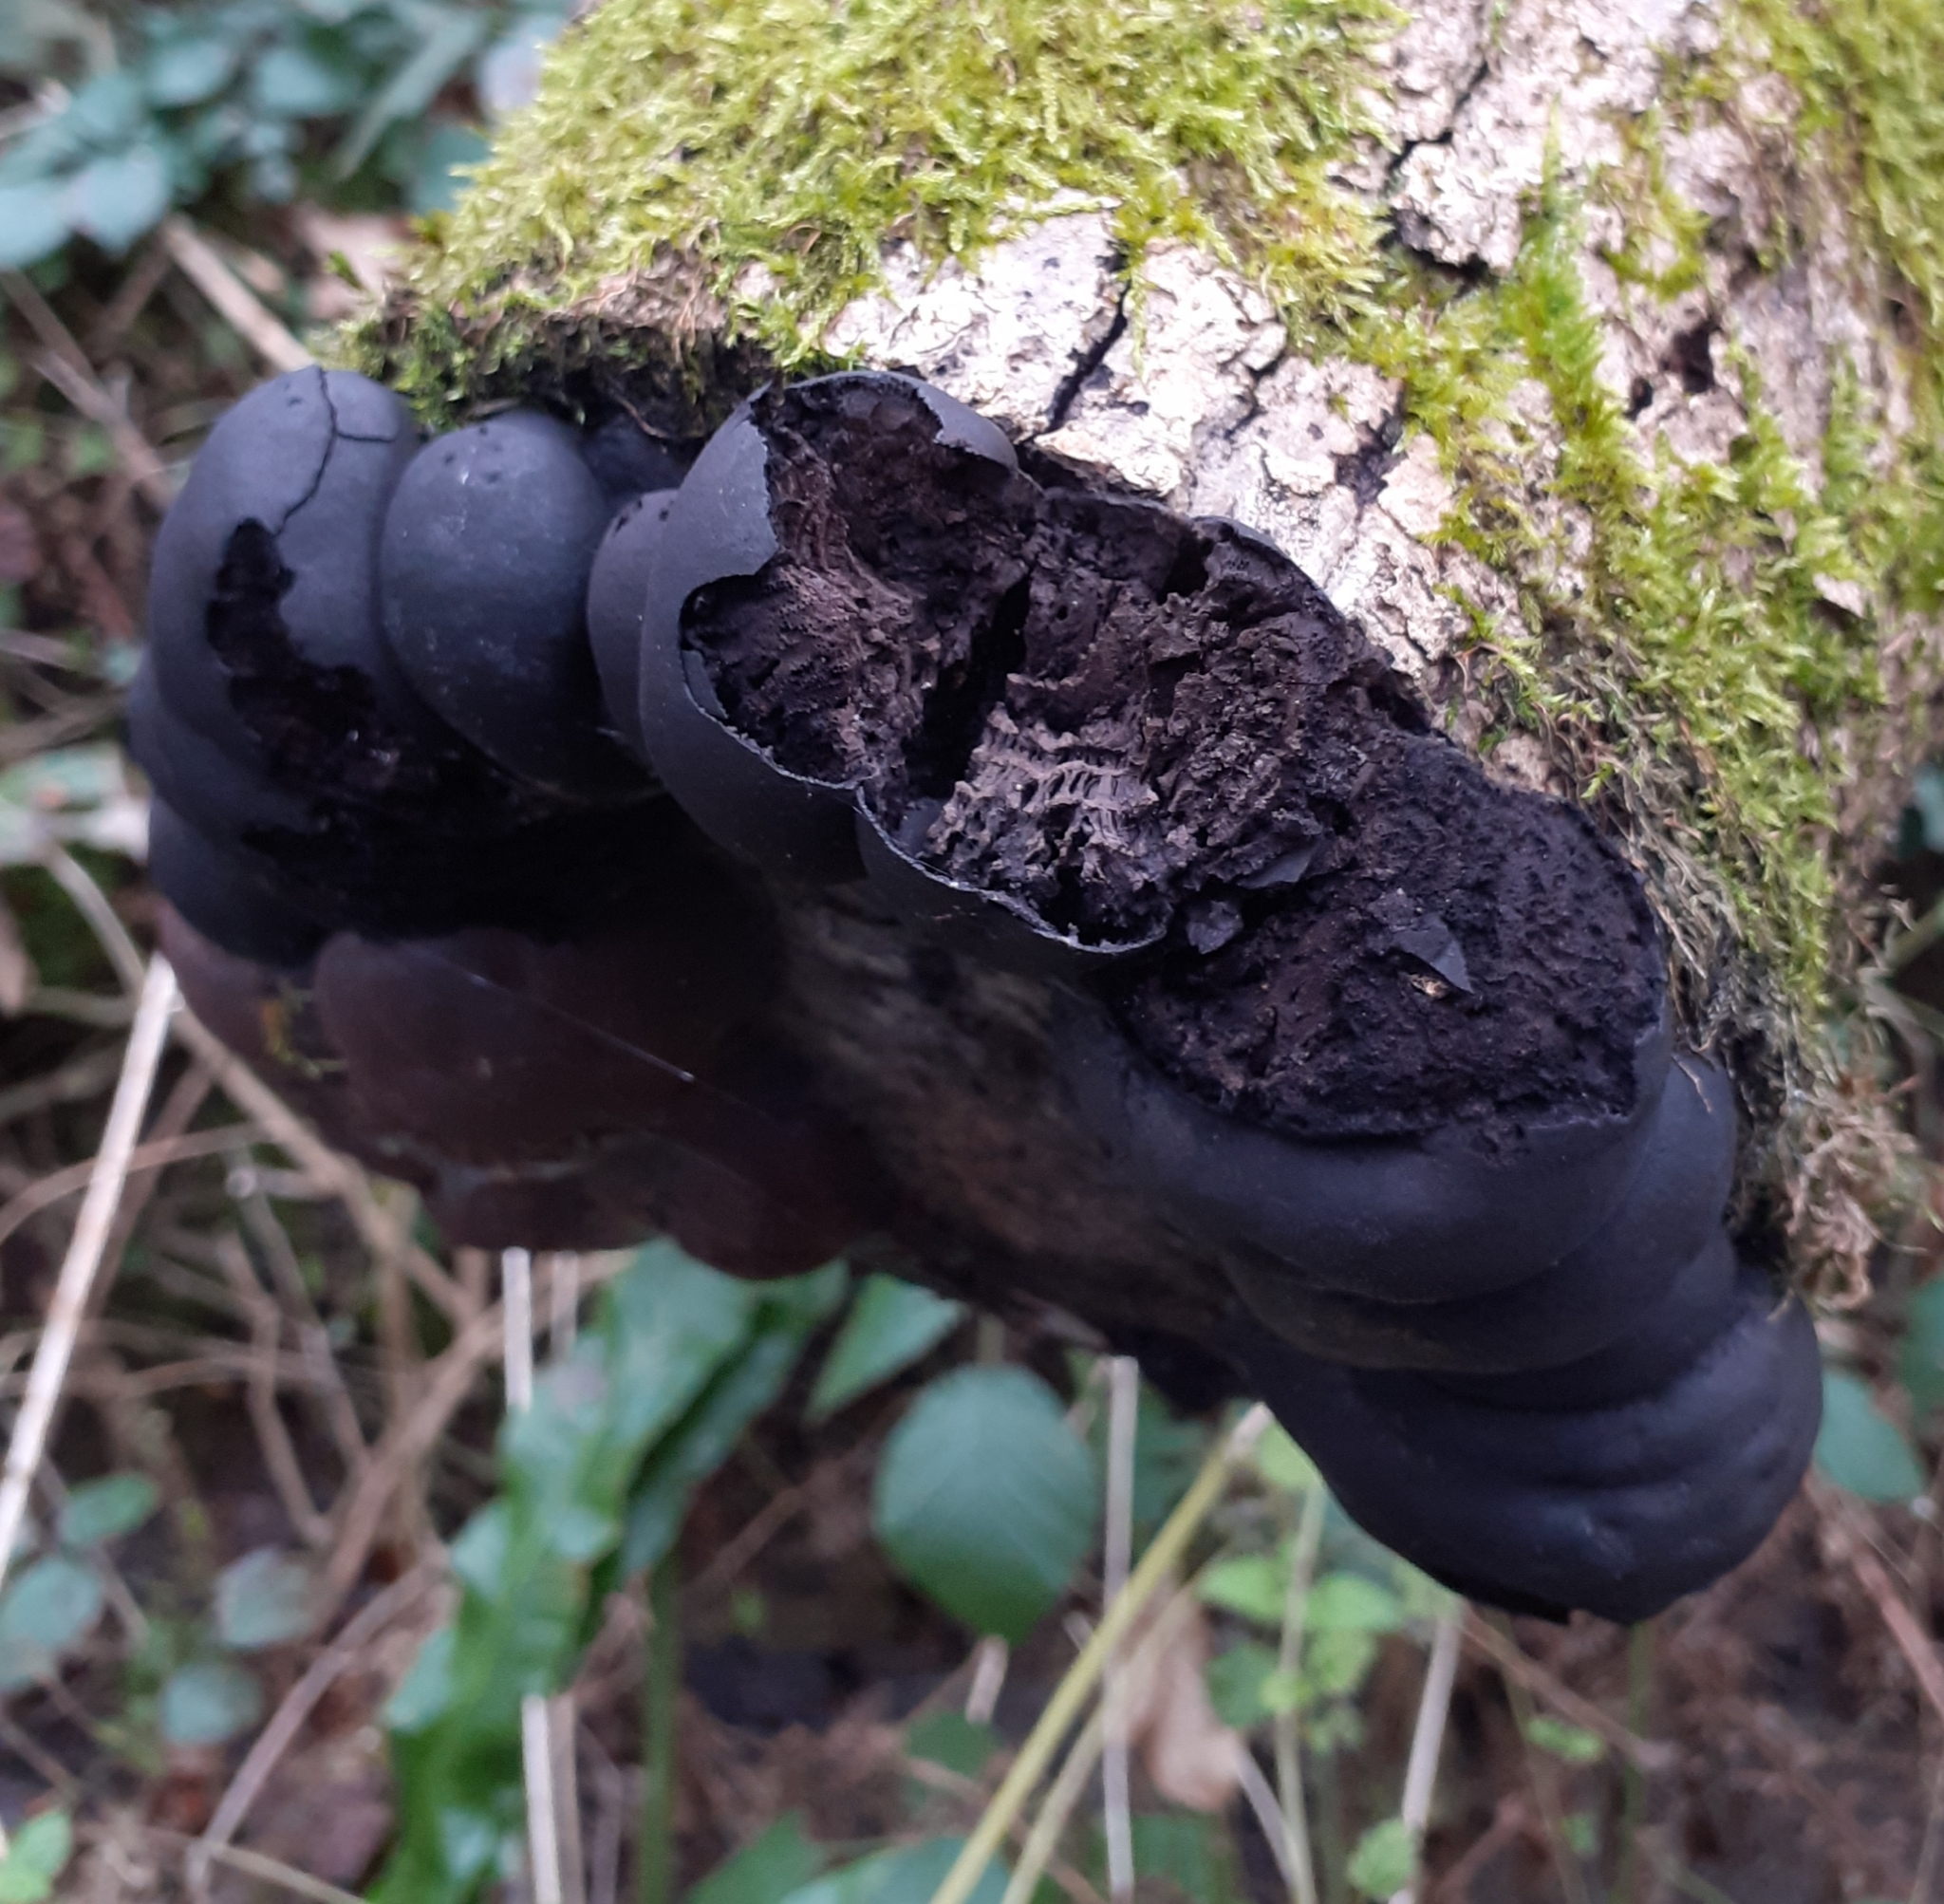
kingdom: Fungi
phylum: Ascomycota
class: Sordariomycetes
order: Xylariales
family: Hypoxylaceae
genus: Daldinia
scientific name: Daldinia concentrica
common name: Cramp balls
